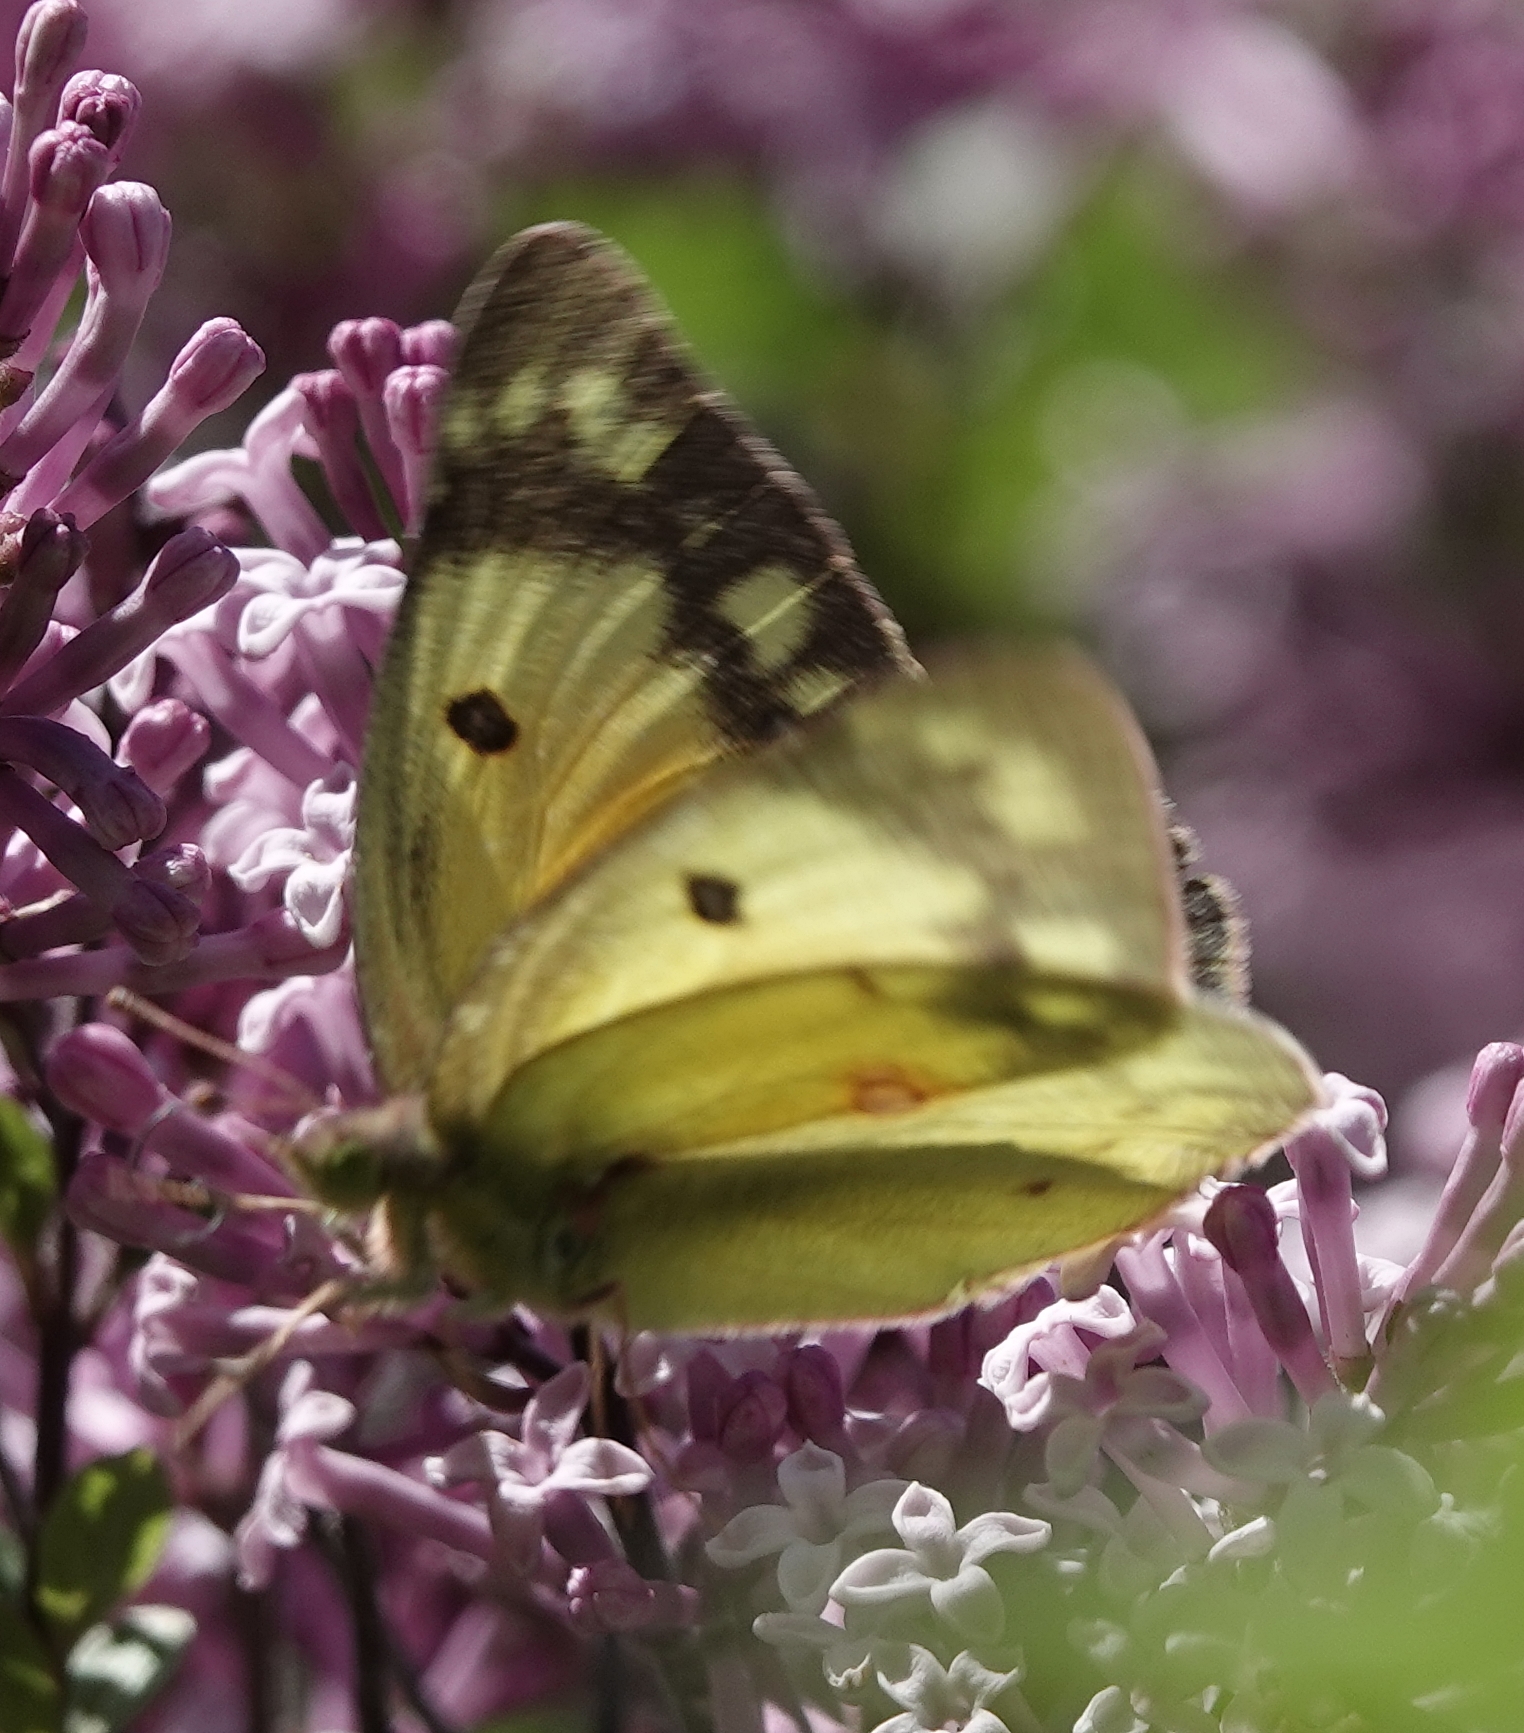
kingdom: Animalia
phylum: Arthropoda
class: Insecta
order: Lepidoptera
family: Pieridae
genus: Colias
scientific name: Colias eurytheme
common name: Alfalfa butterfly
